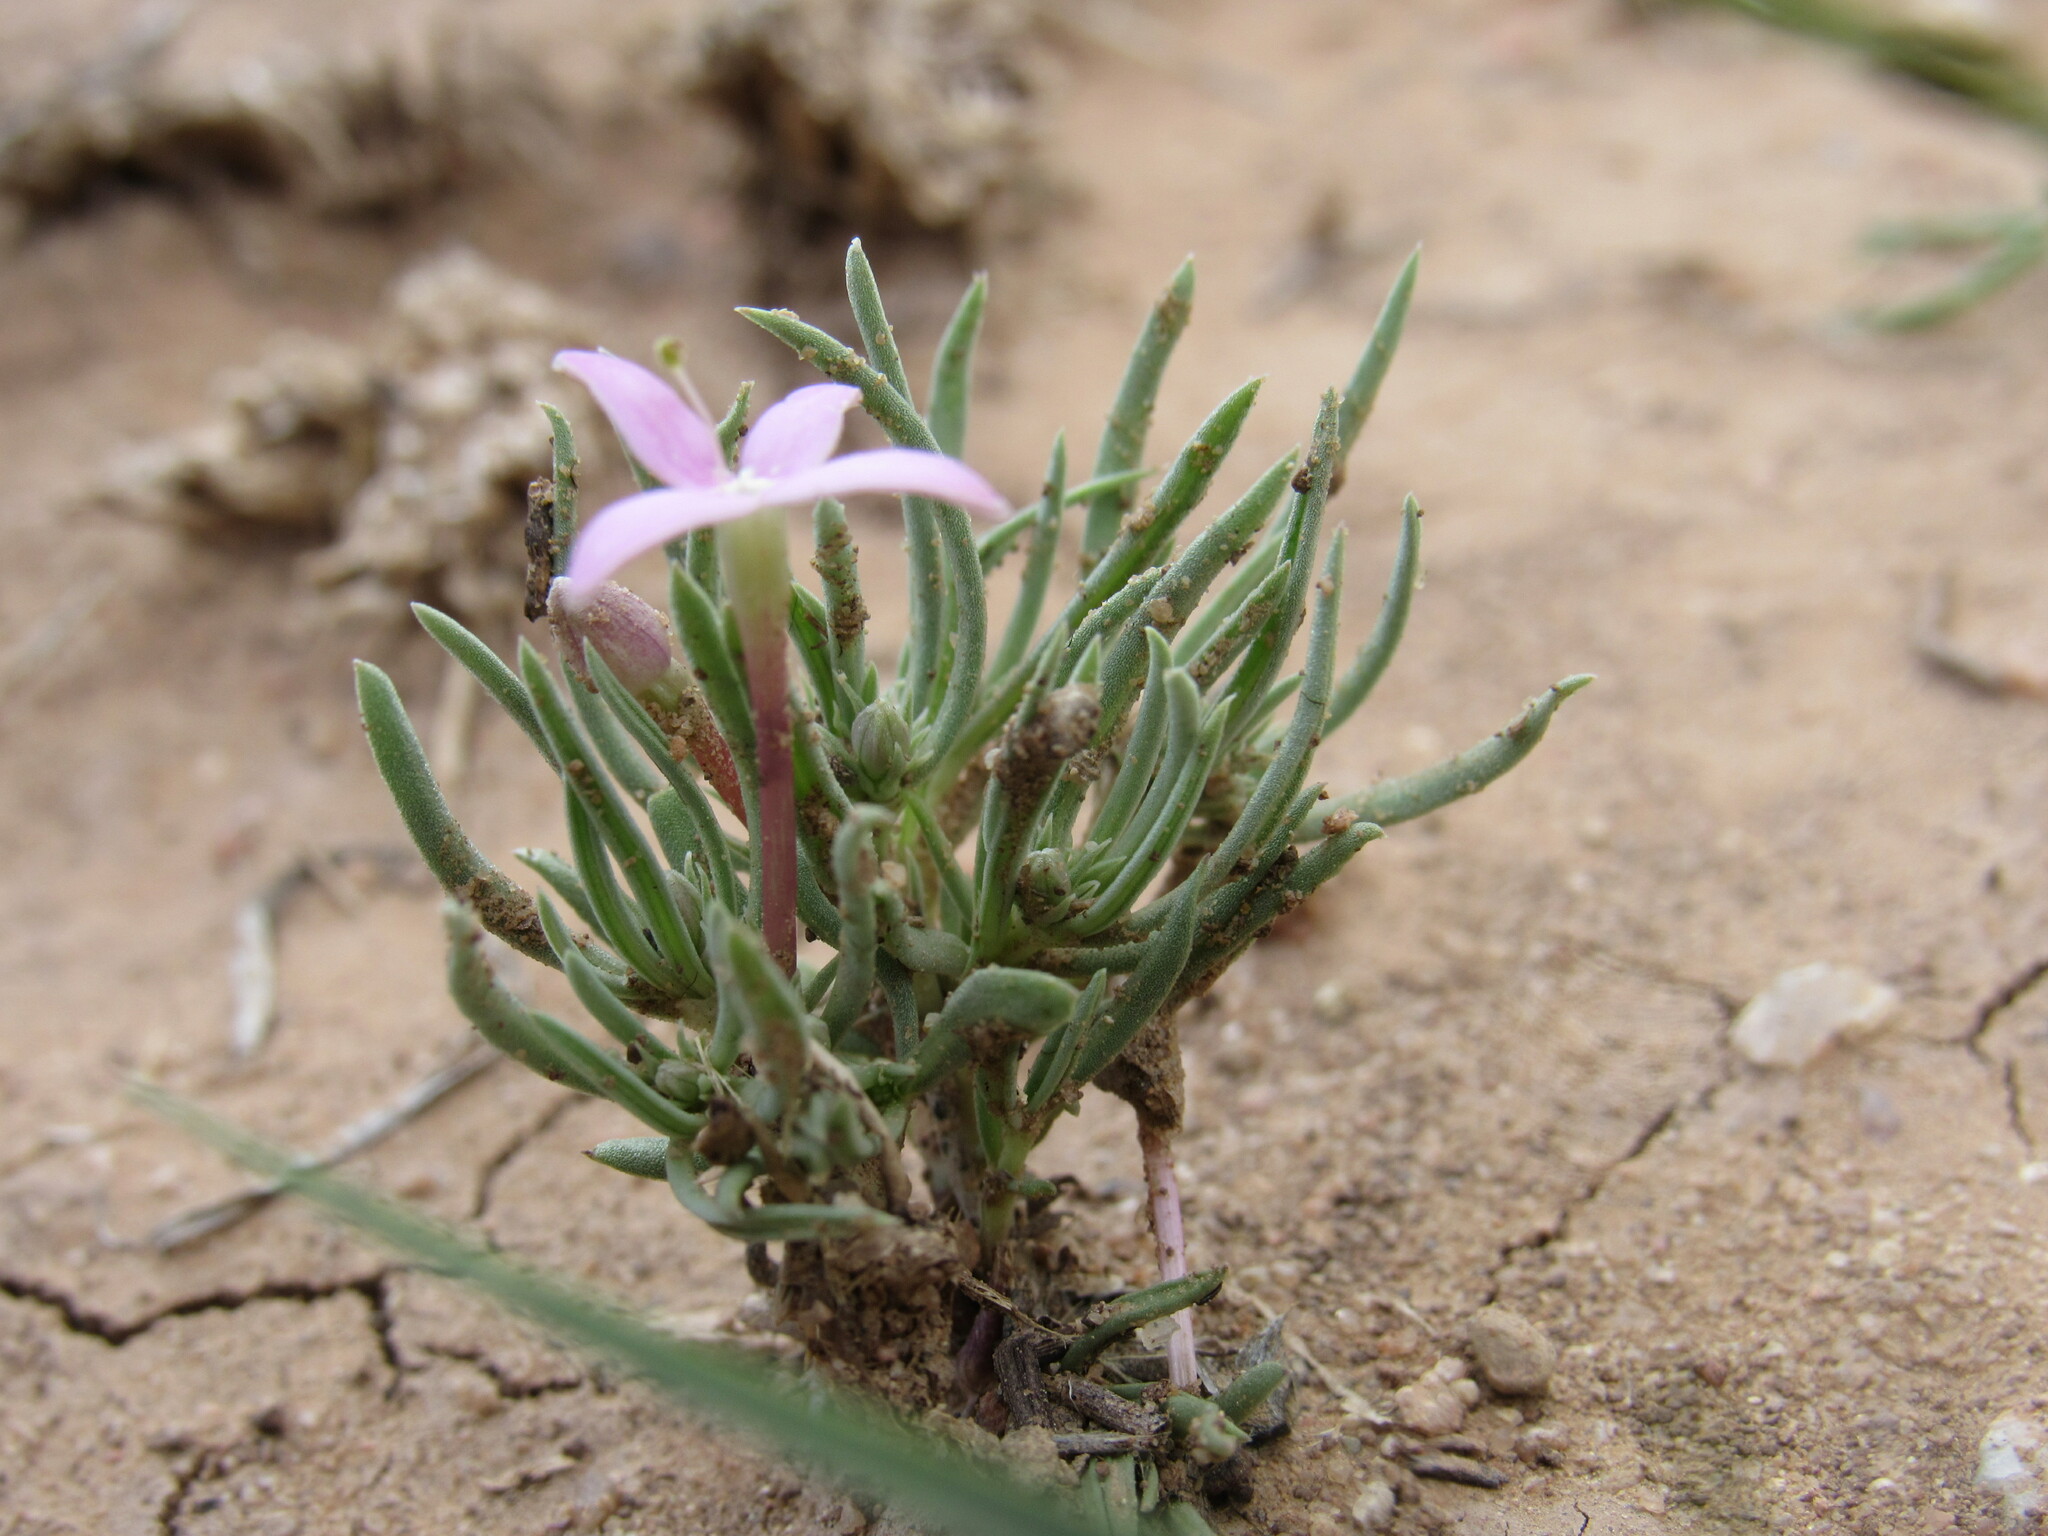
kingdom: Plantae
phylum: Tracheophyta
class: Magnoliopsida
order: Gentianales
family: Rubiaceae
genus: Houstonia
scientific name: Houstonia rubra
